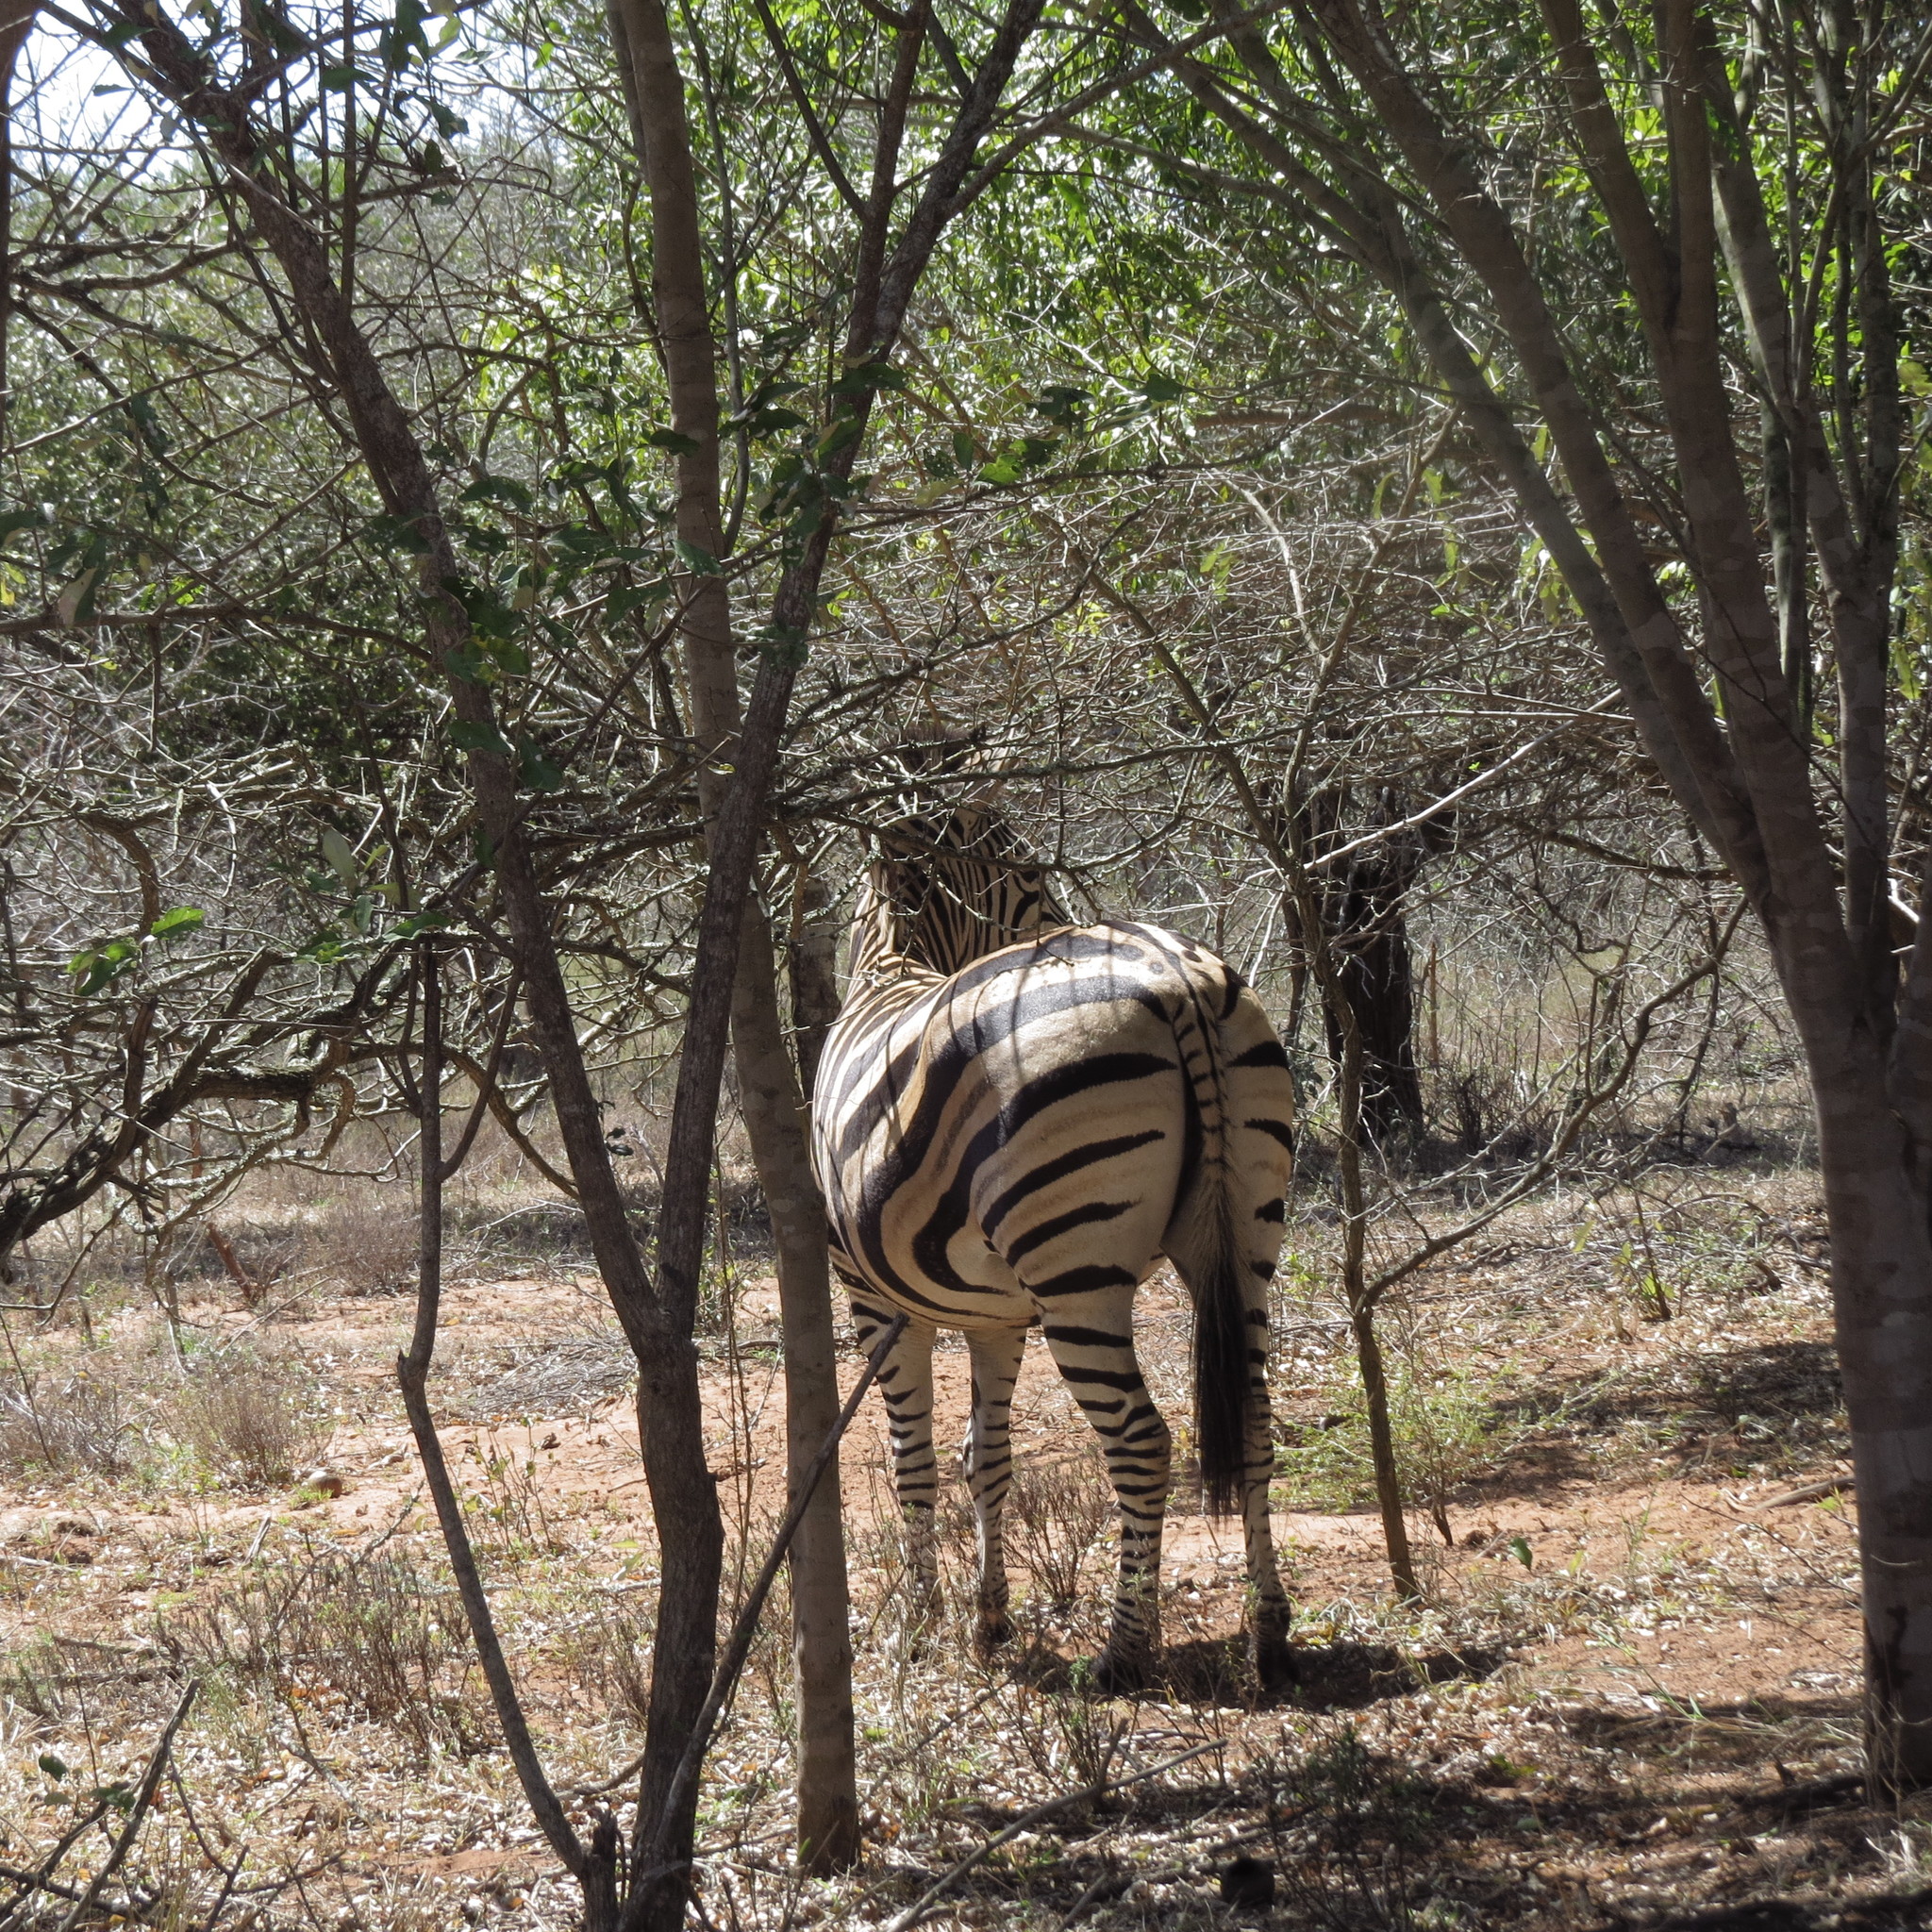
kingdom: Animalia
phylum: Chordata
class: Mammalia
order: Perissodactyla
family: Equidae
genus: Equus
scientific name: Equus quagga
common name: Plains zebra
